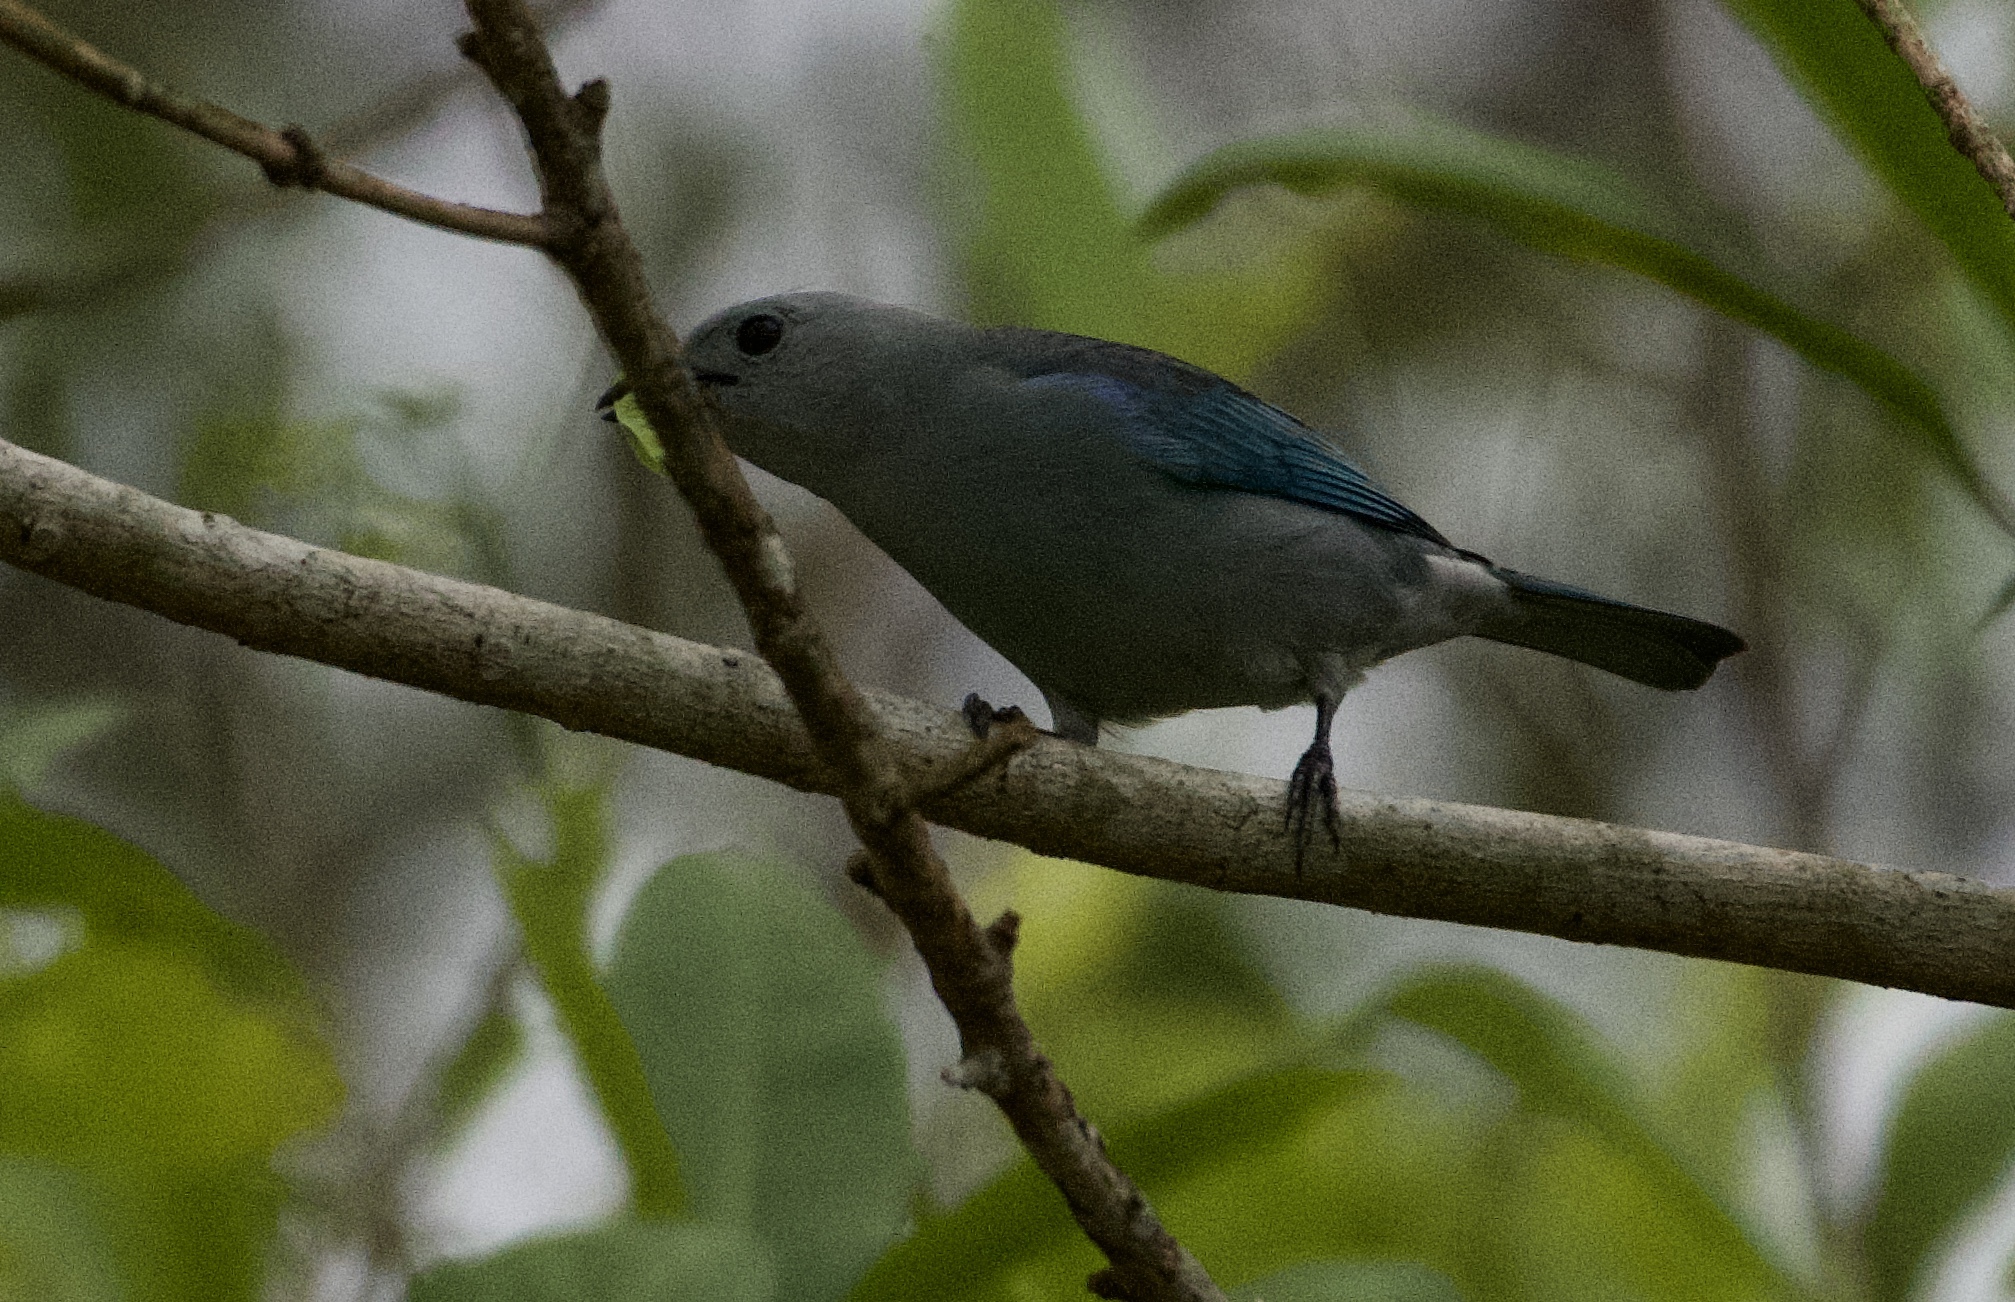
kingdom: Animalia
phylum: Chordata
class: Aves
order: Passeriformes
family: Thraupidae
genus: Thraupis
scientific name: Thraupis episcopus
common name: Blue-grey tanager
